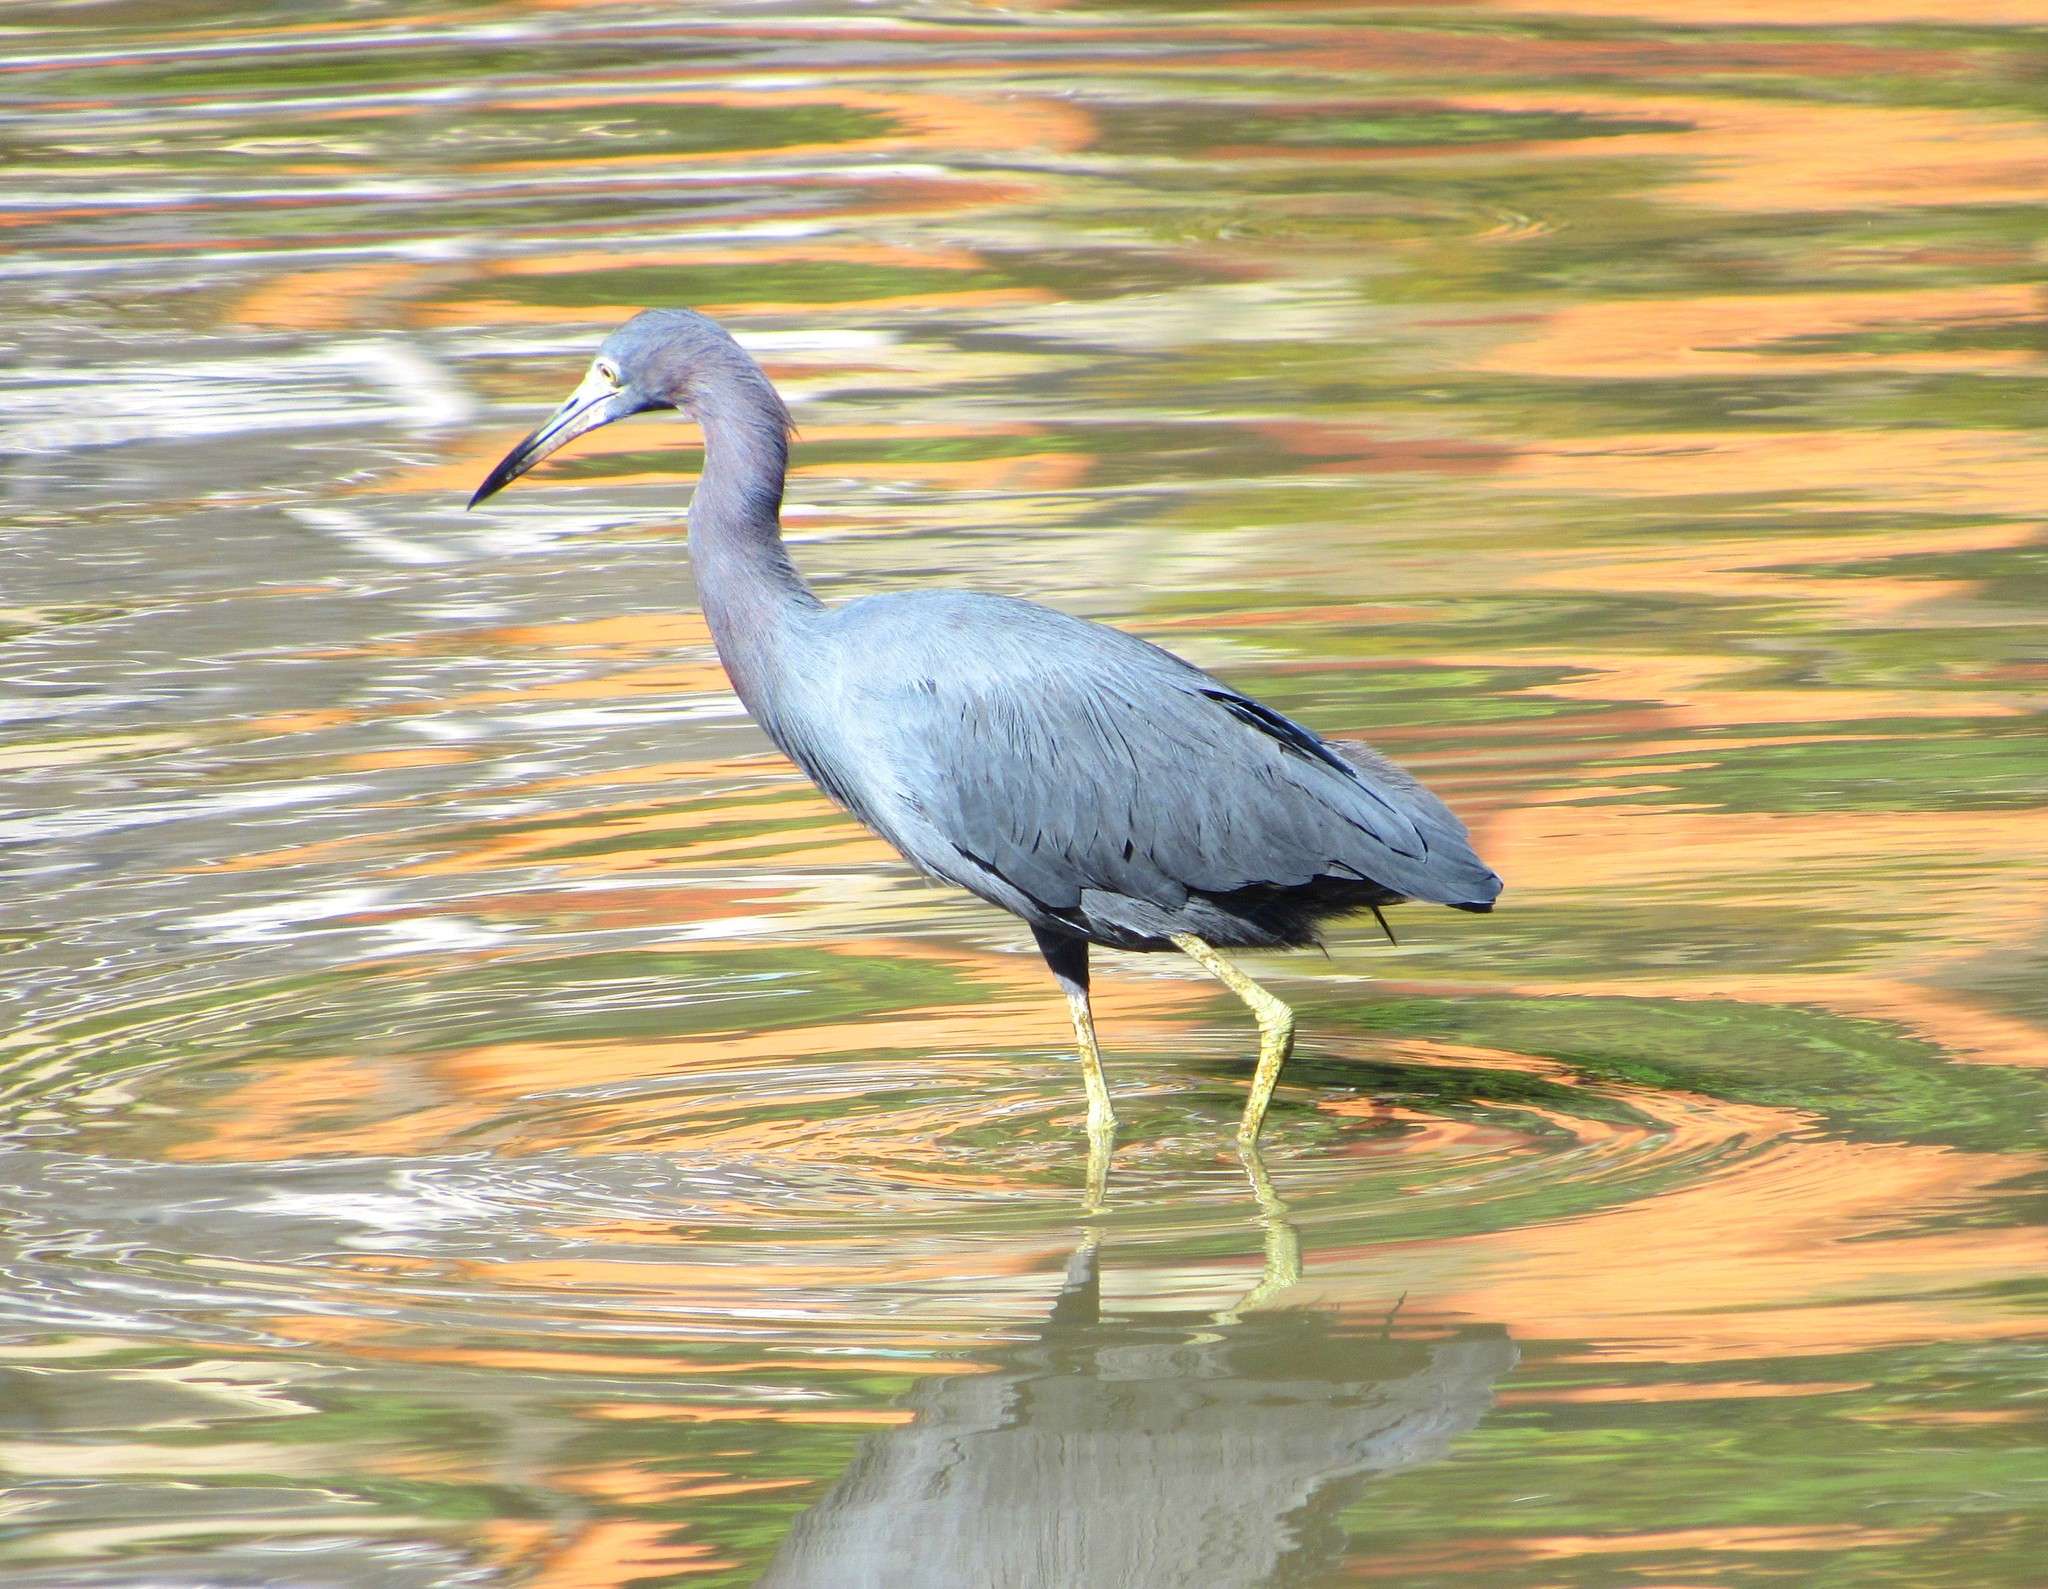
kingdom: Animalia
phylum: Chordata
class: Aves
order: Pelecaniformes
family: Ardeidae
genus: Egretta
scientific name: Egretta caerulea
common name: Little blue heron
